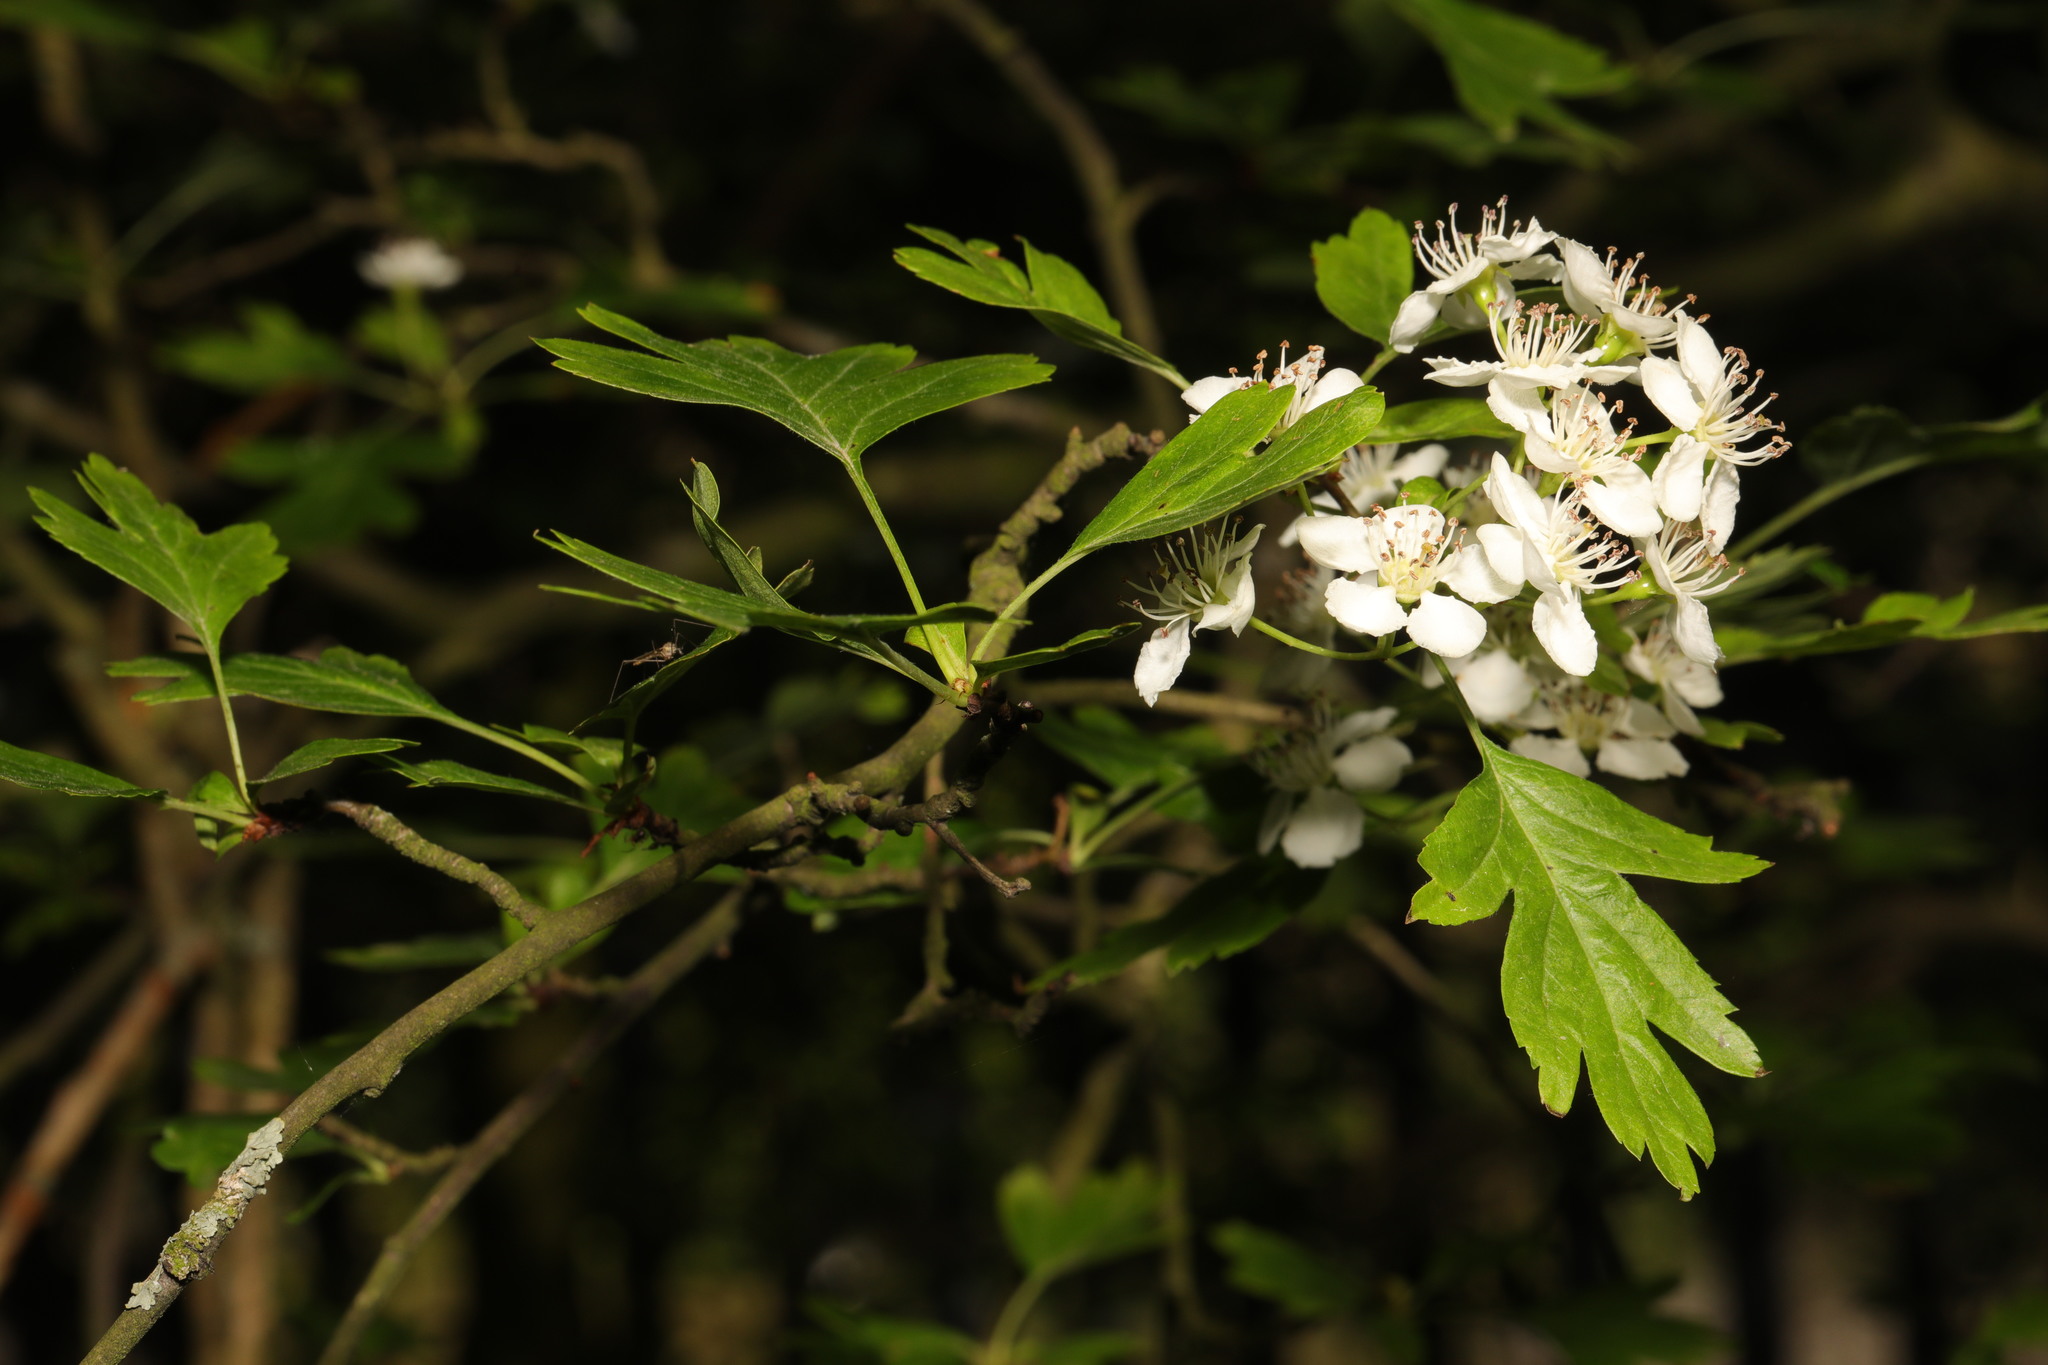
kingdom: Plantae
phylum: Tracheophyta
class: Magnoliopsida
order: Rosales
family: Rosaceae
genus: Crataegus
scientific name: Crataegus monogyna
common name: Hawthorn
